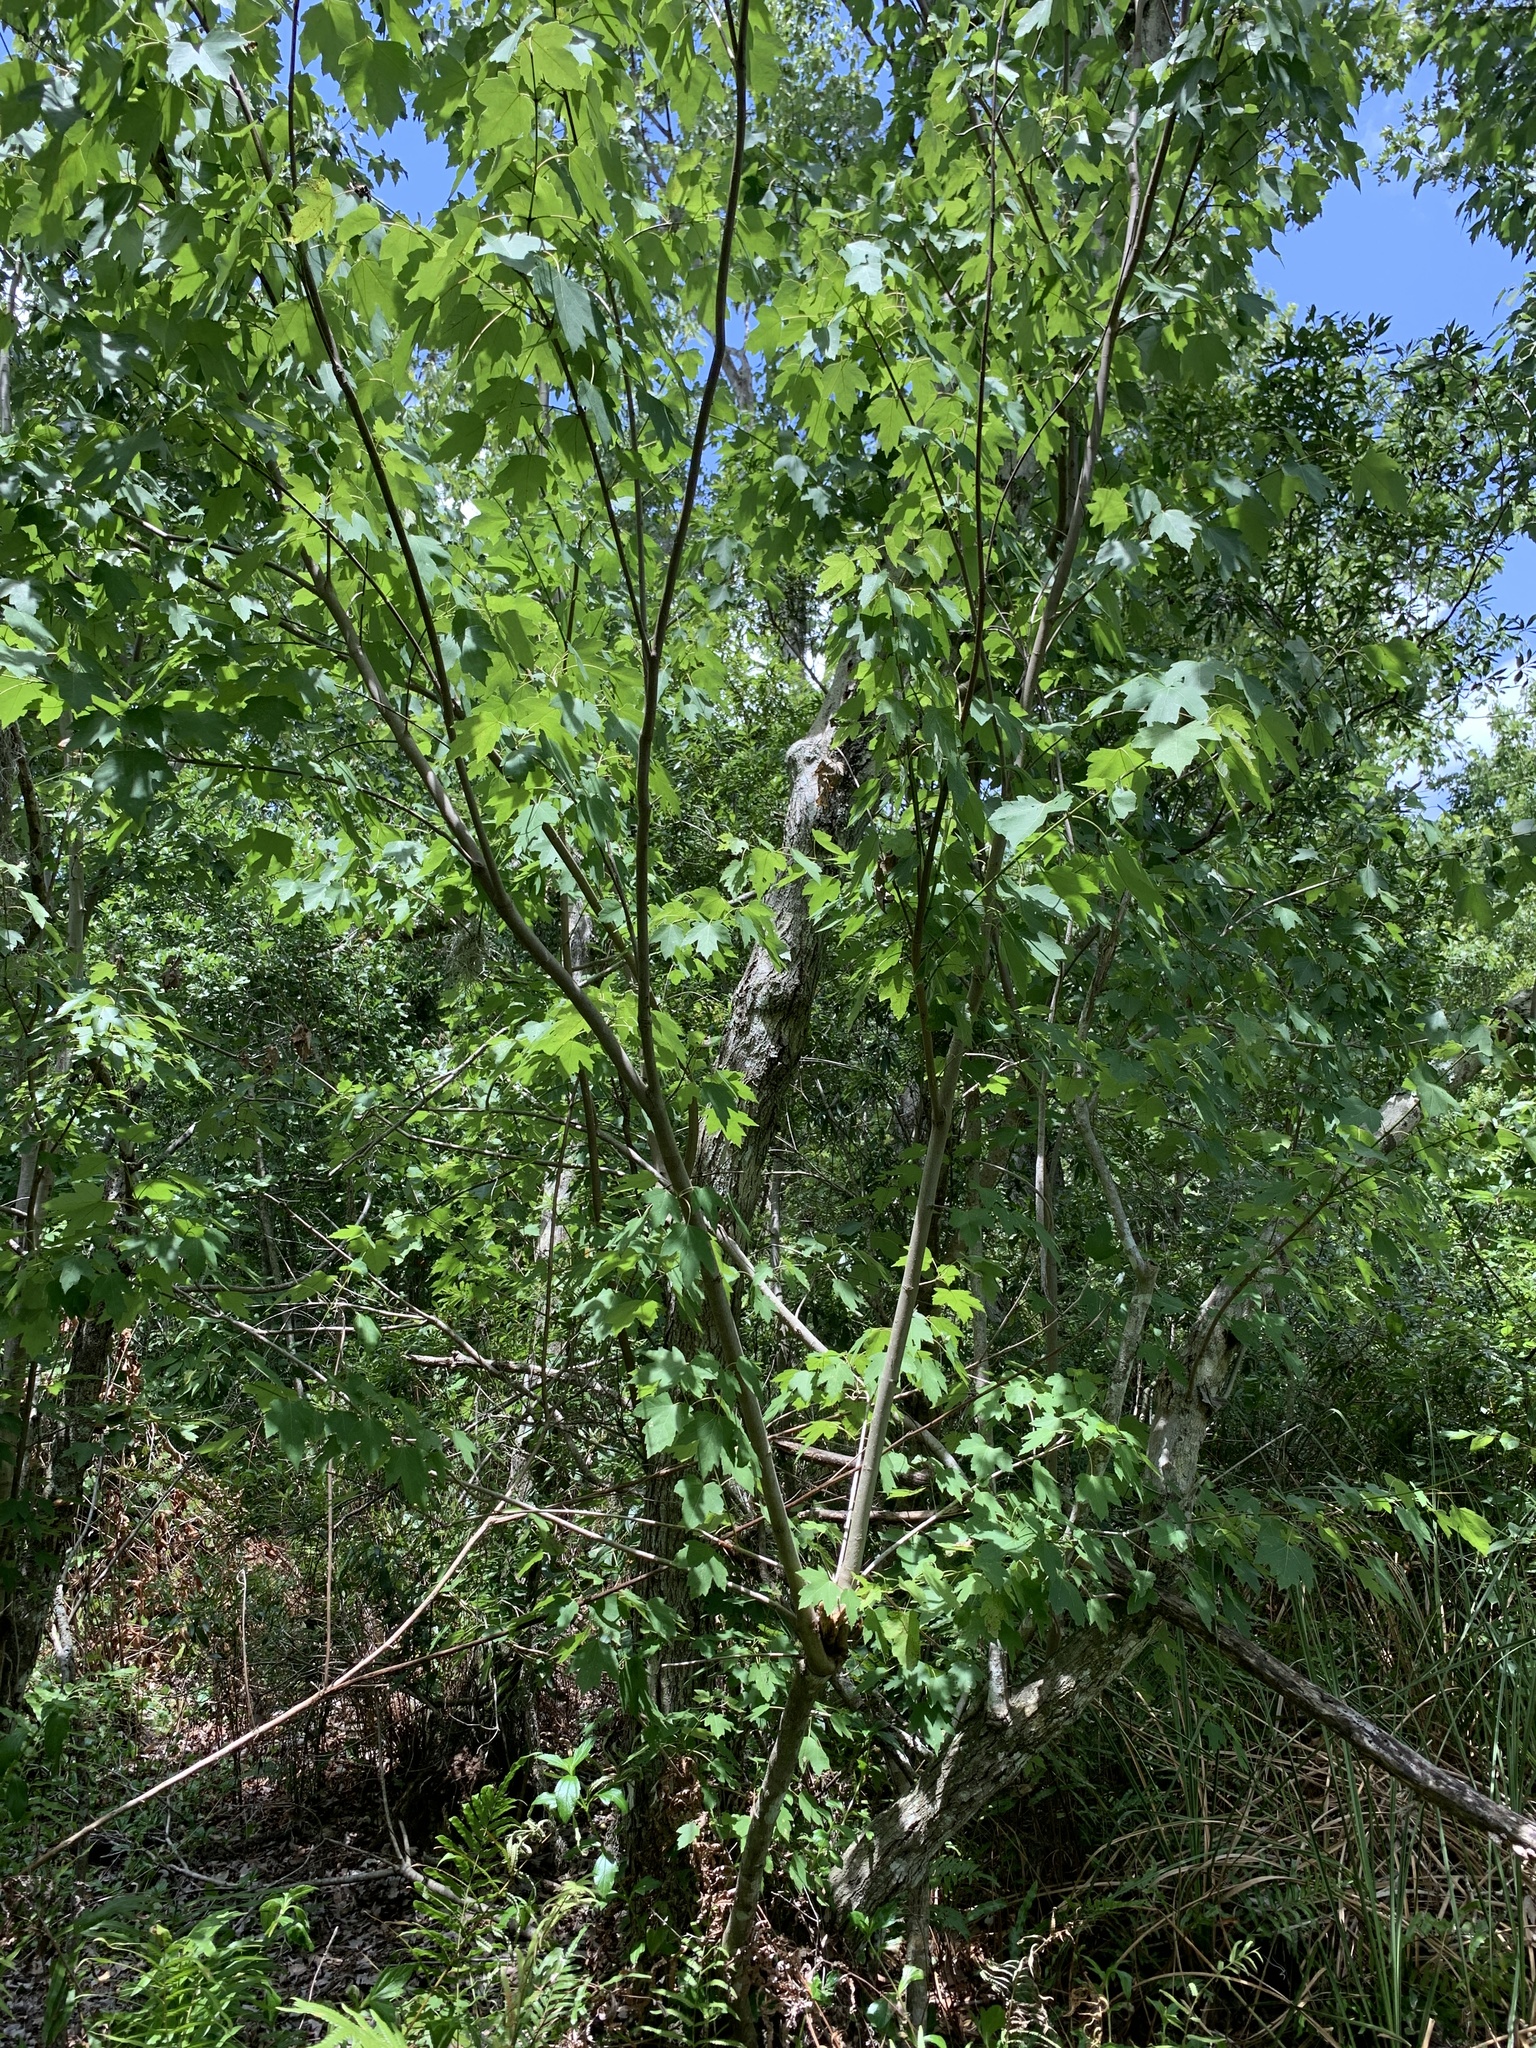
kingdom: Plantae
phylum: Tracheophyta
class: Magnoliopsida
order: Sapindales
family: Sapindaceae
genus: Acer
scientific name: Acer rubrum
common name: Red maple
